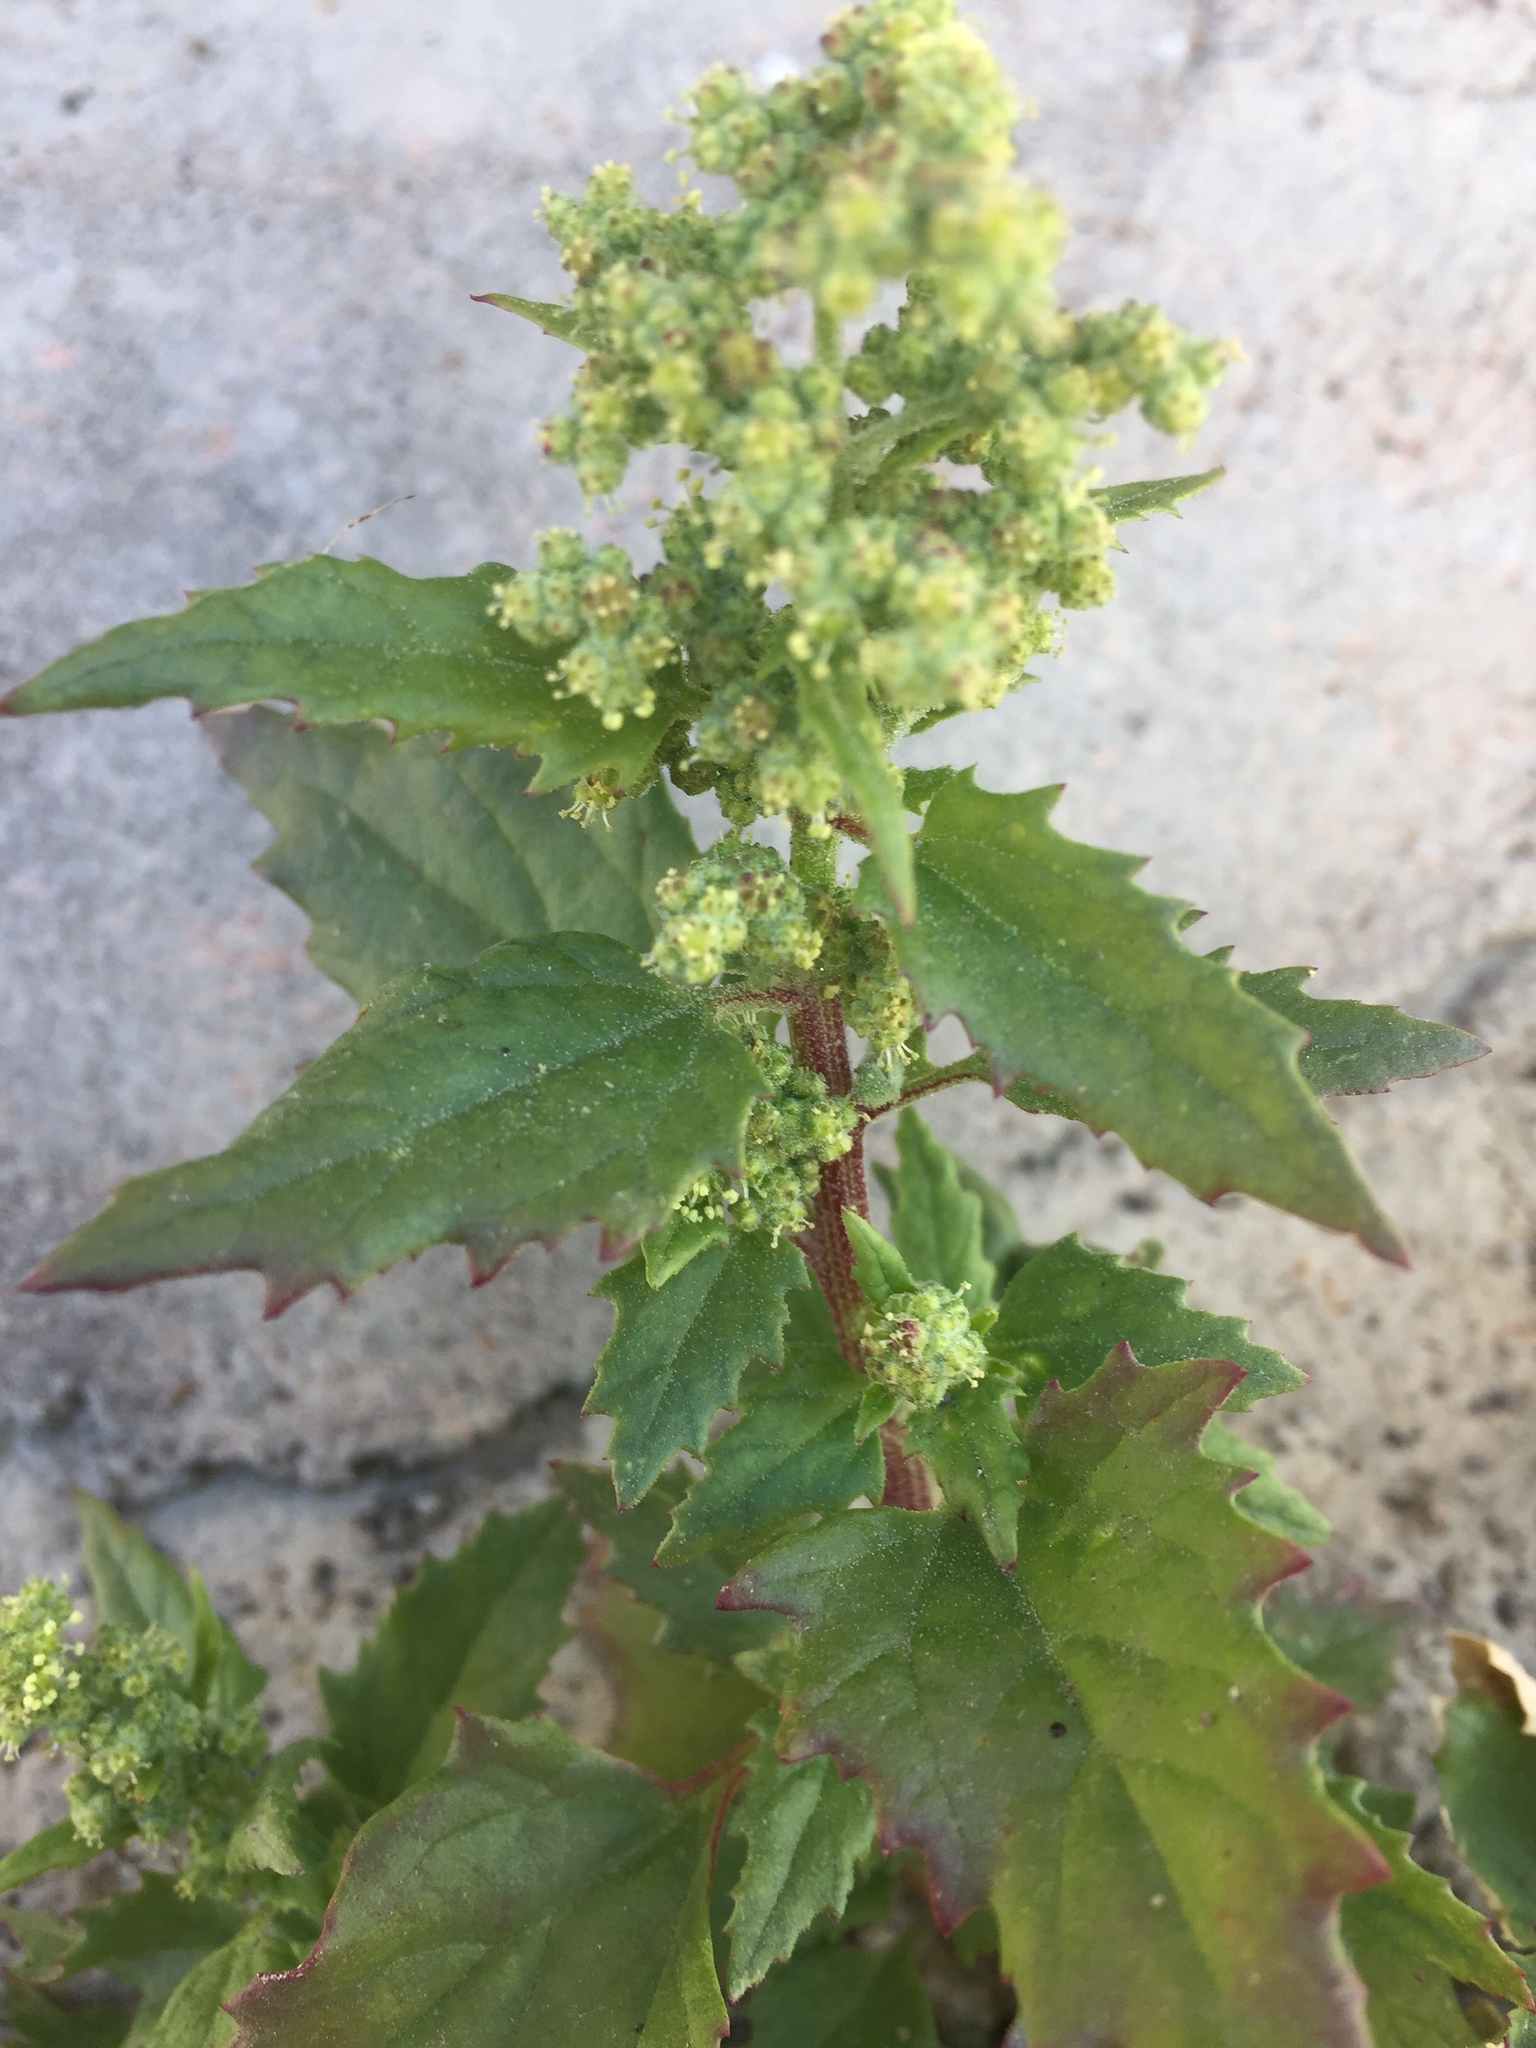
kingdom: Plantae
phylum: Tracheophyta
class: Magnoliopsida
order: Caryophyllales
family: Amaranthaceae
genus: Chenopodiastrum
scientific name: Chenopodiastrum murale
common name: Sowbane
